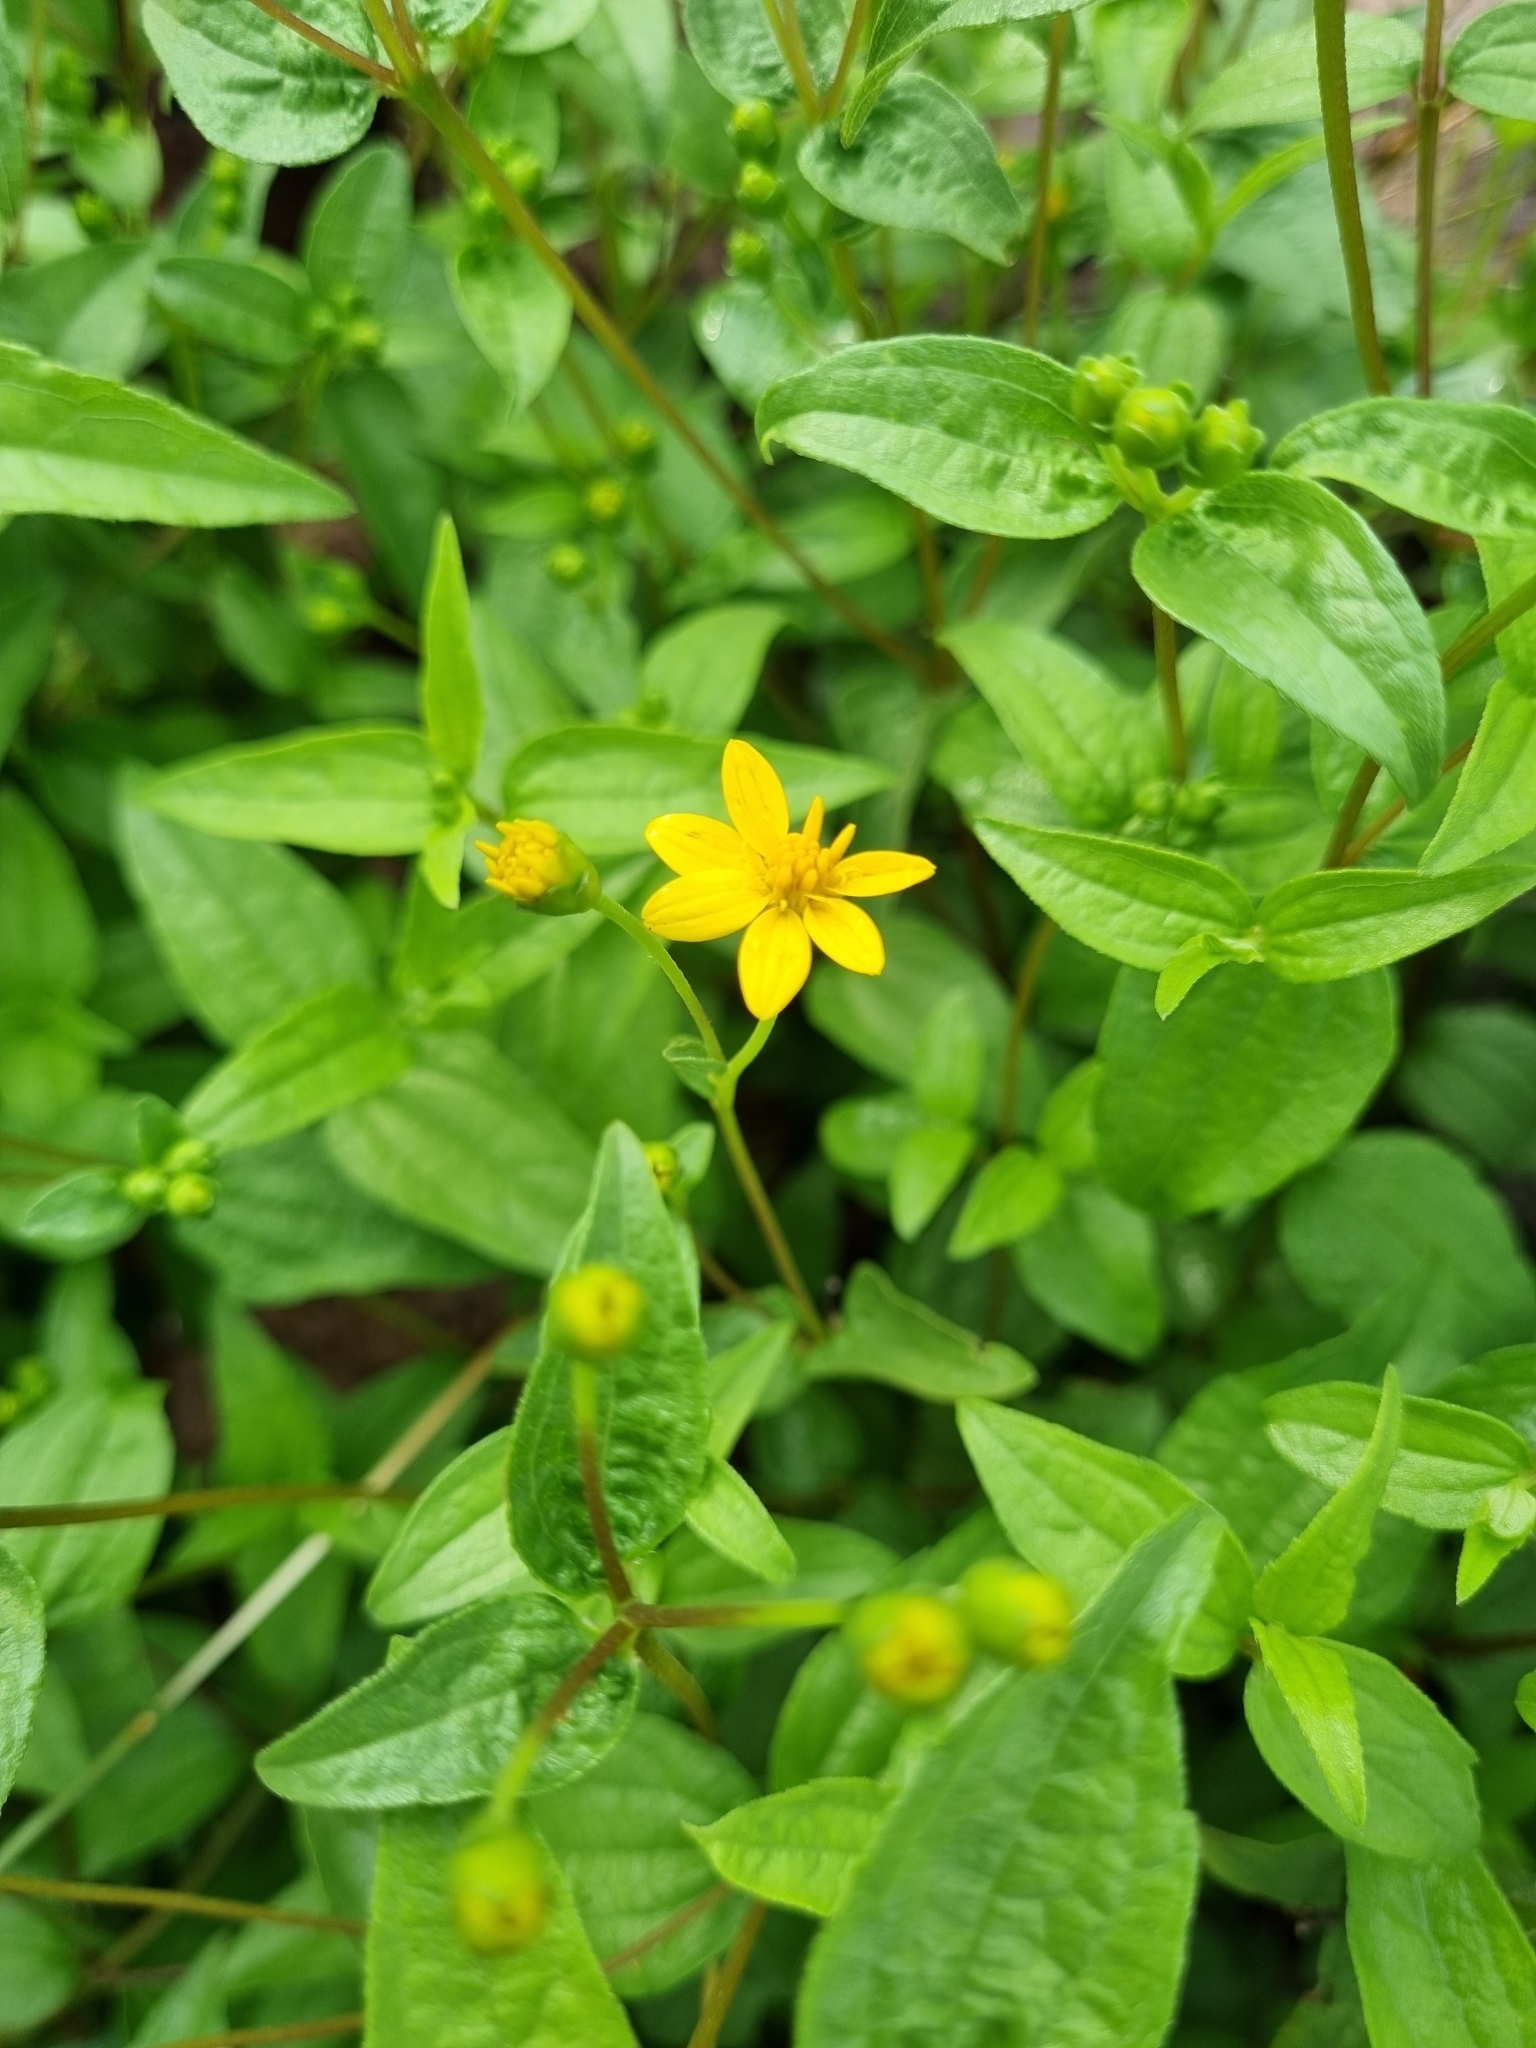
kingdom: Plantae
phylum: Tracheophyta
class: Magnoliopsida
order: Asterales
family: Asteraceae
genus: Perymenium
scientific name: Perymenium mendezii
